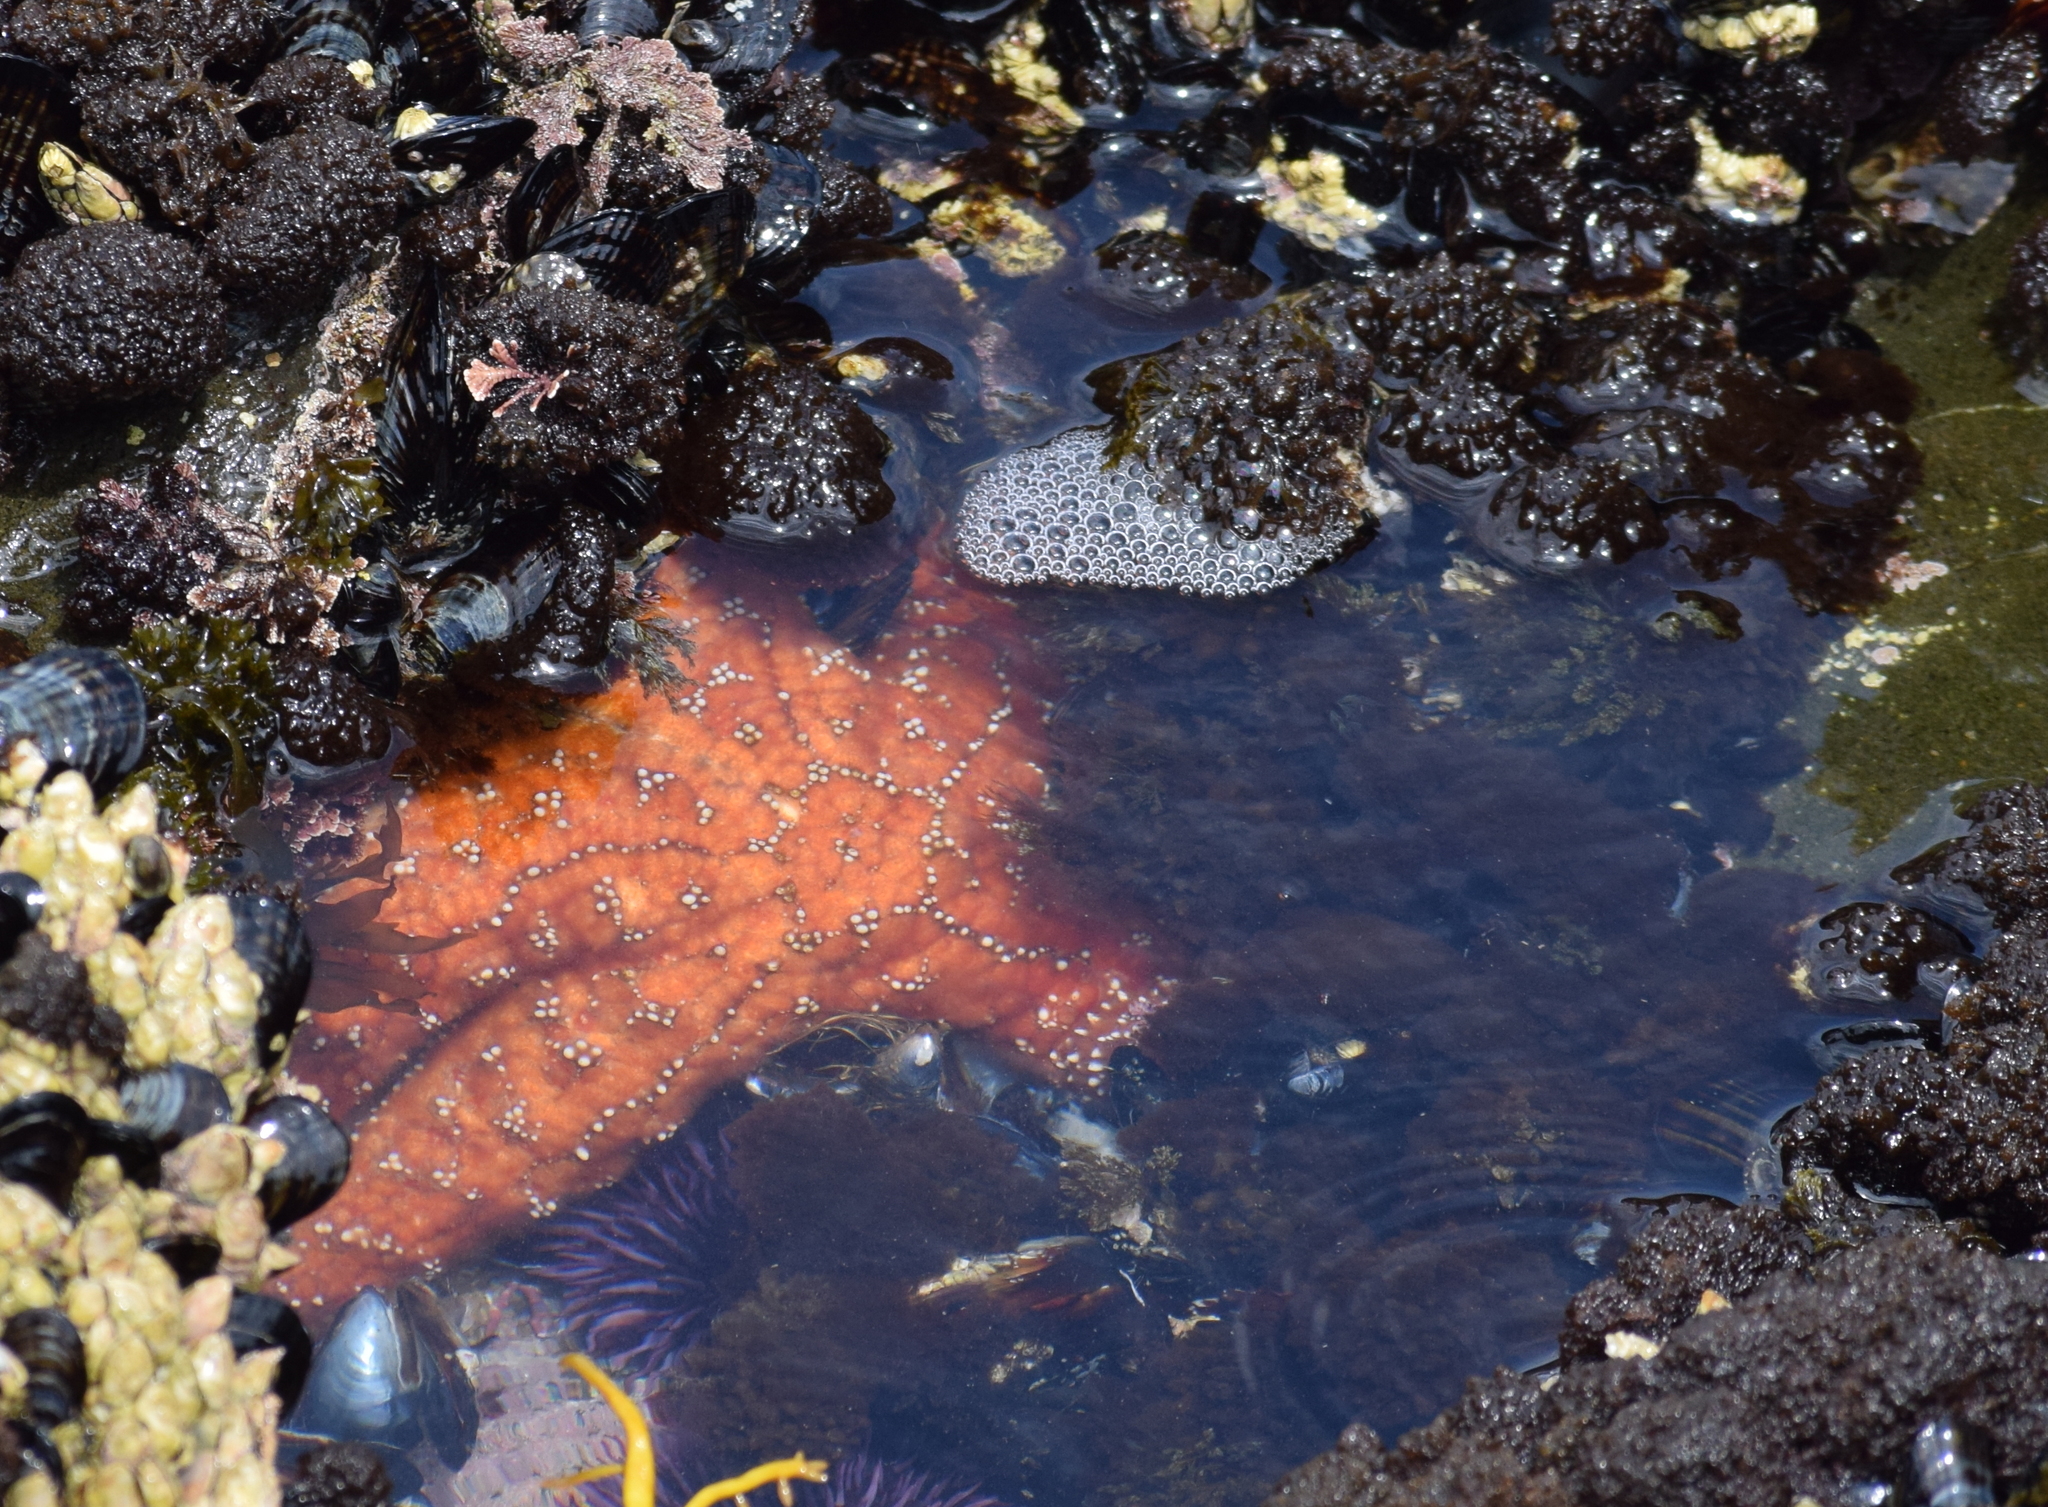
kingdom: Animalia
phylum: Echinodermata
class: Asteroidea
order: Forcipulatida
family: Asteriidae
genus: Pisaster
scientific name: Pisaster ochraceus
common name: Ochre stars
